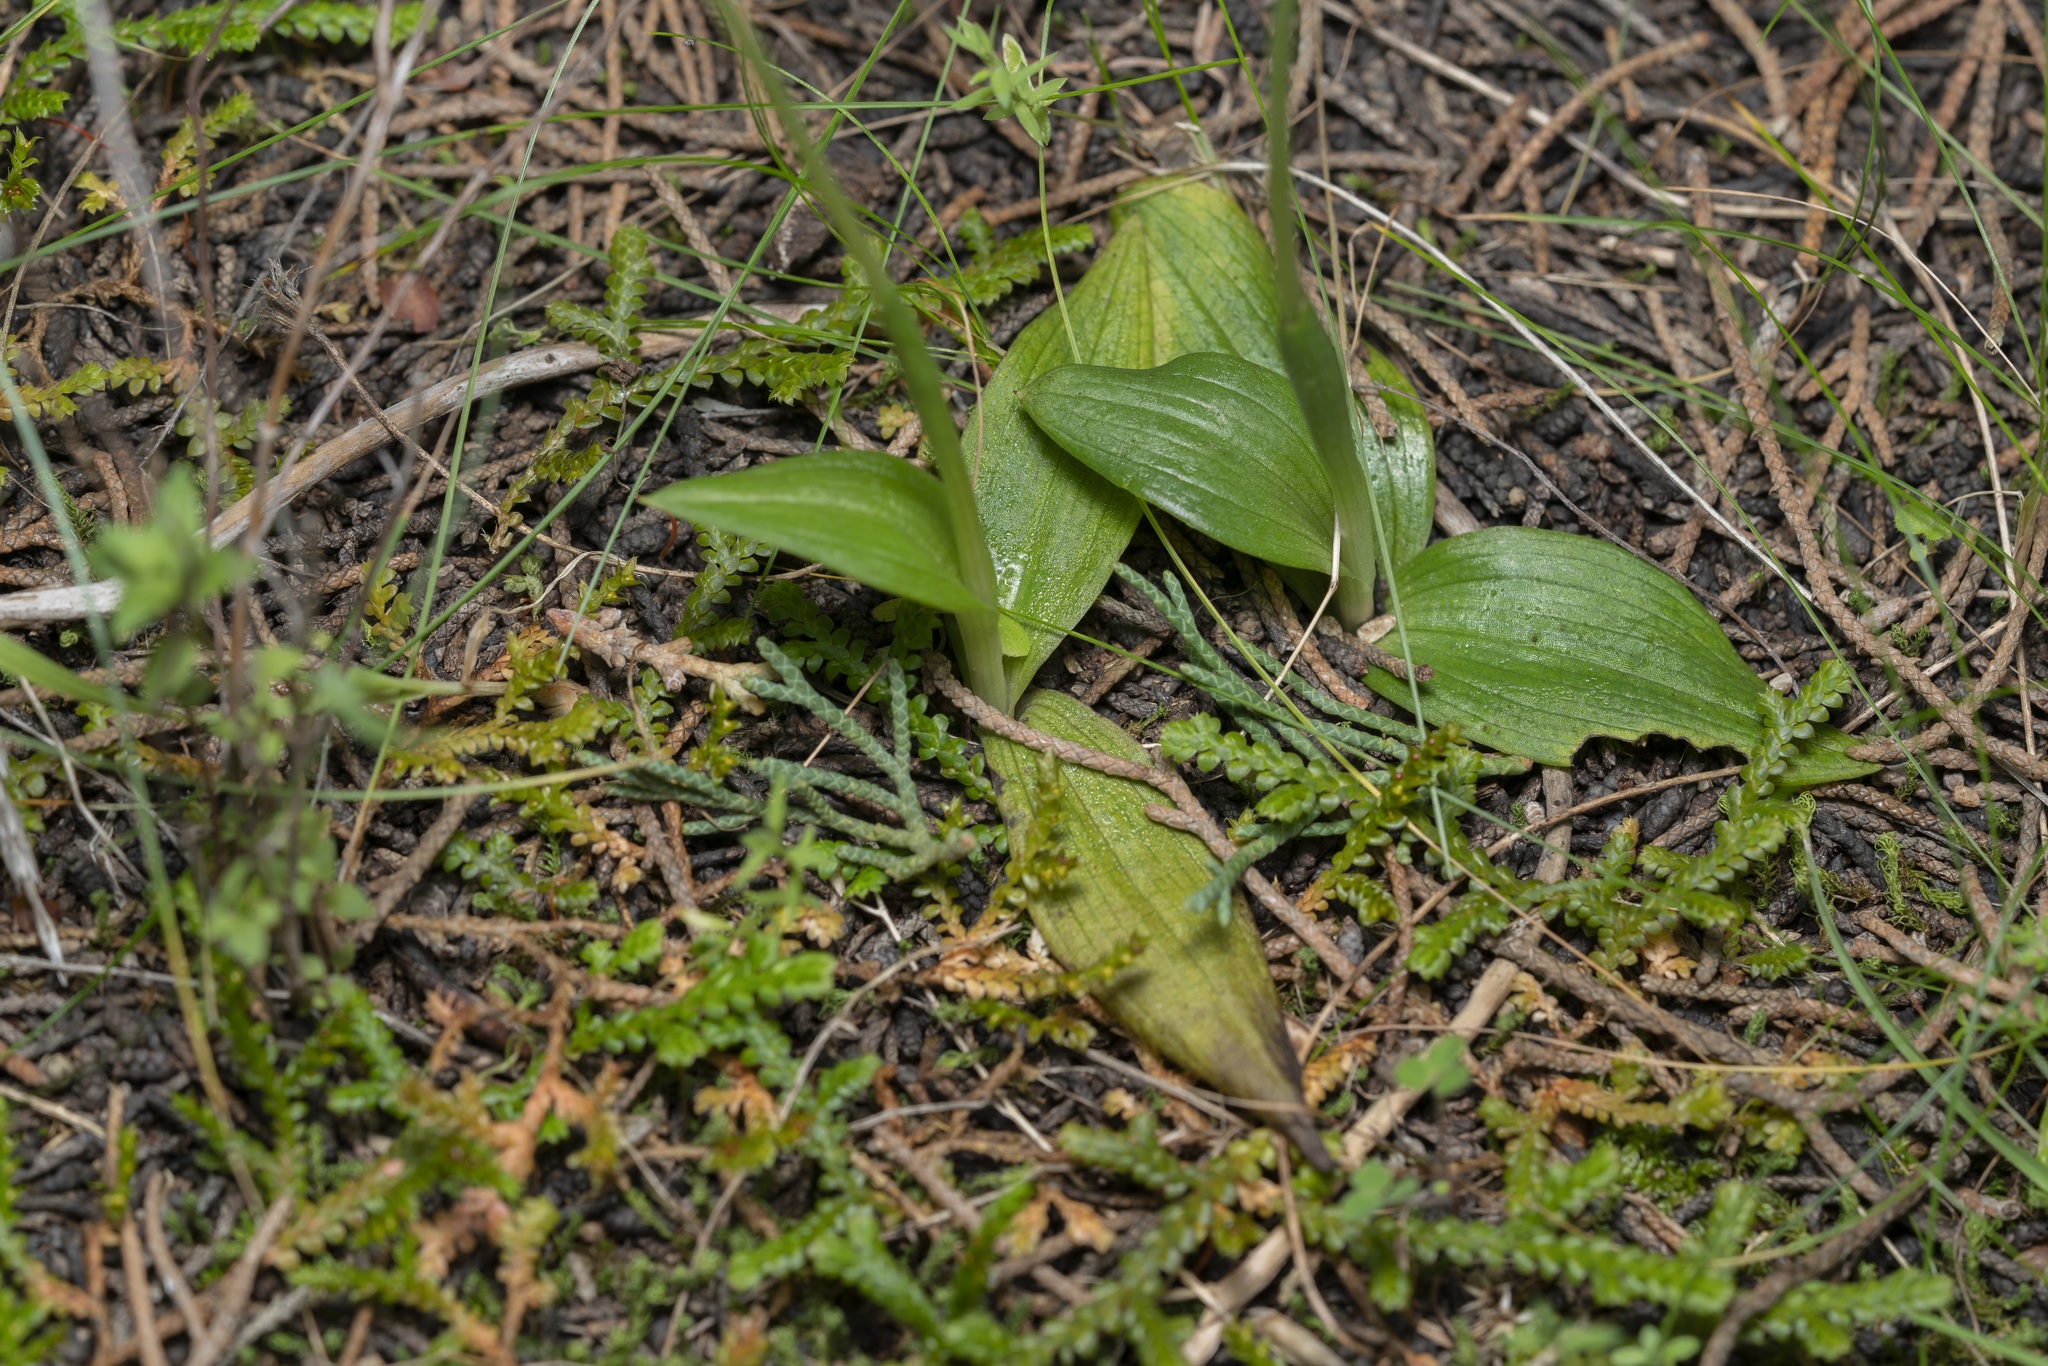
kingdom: Plantae
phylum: Tracheophyta
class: Liliopsida
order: Asparagales
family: Orchidaceae
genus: Ophrys
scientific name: Ophrys lutea
